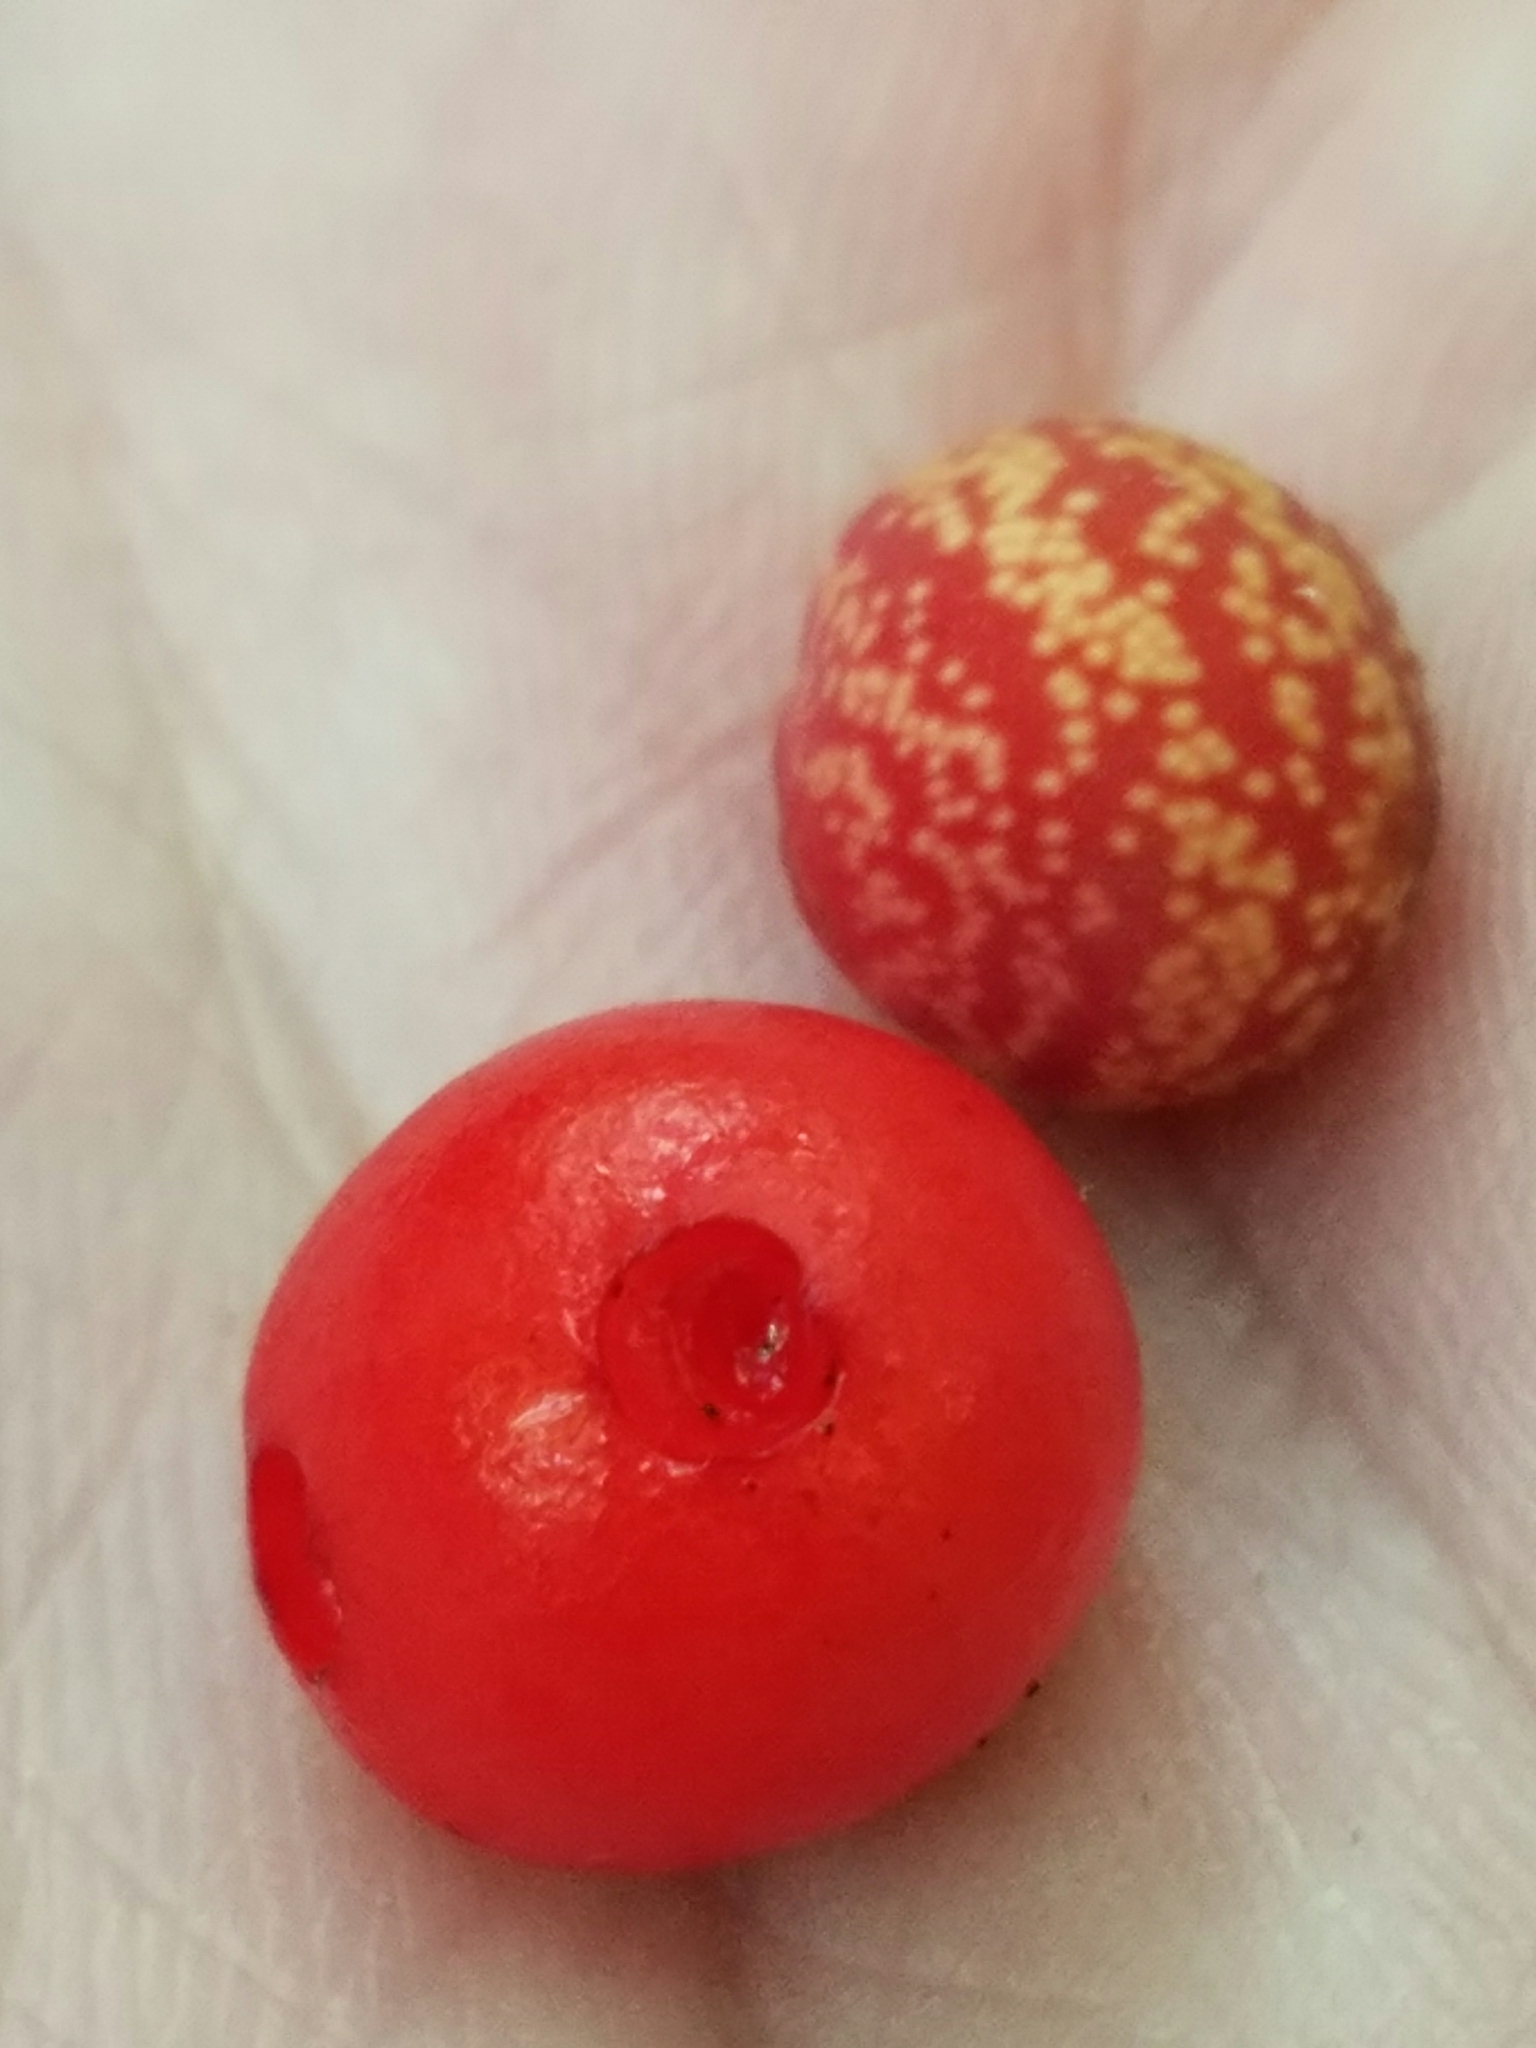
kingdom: Plantae
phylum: Tracheophyta
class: Magnoliopsida
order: Gentianales
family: Rubiaceae
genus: Mitchella
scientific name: Mitchella repens
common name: Partridge-berry
